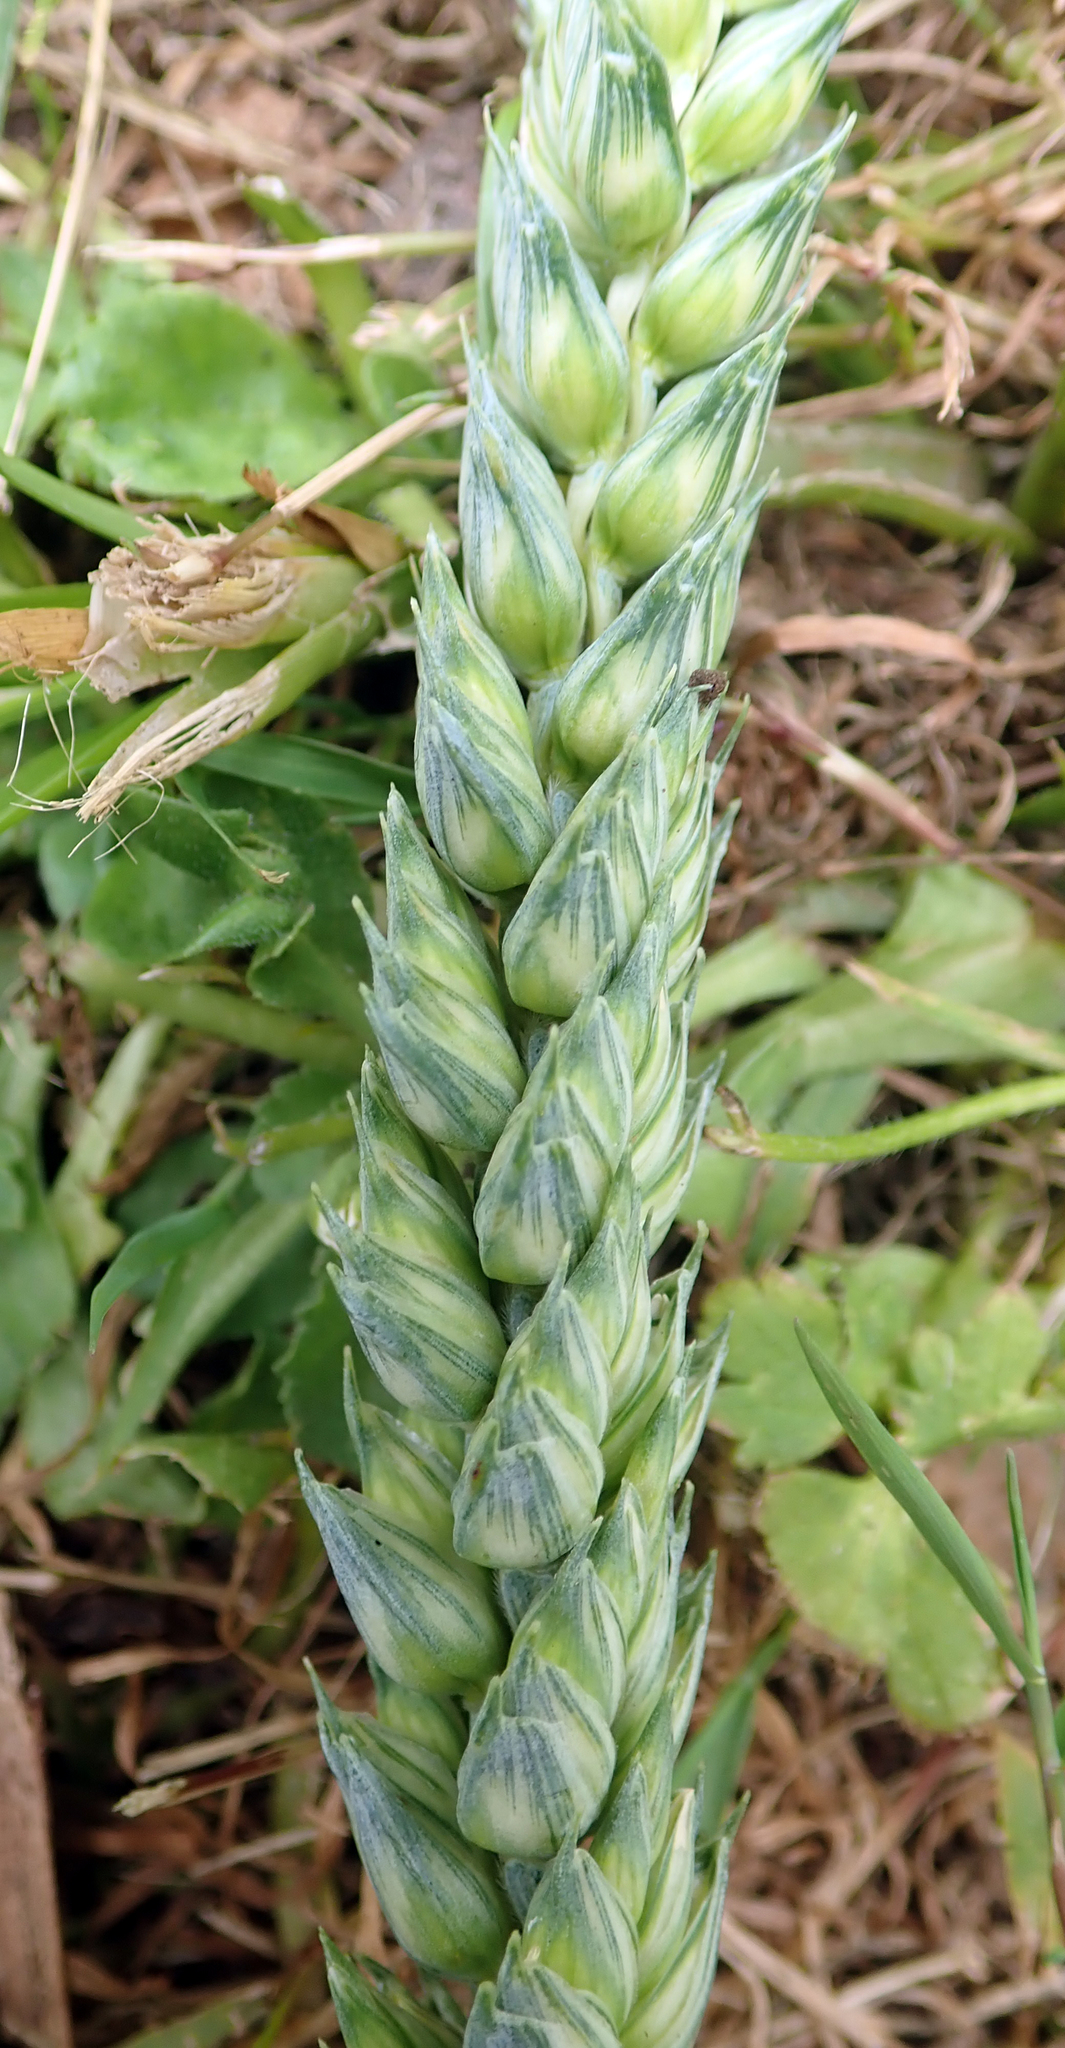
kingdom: Plantae
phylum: Tracheophyta
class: Liliopsida
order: Poales
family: Poaceae
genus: Triticum
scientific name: Triticum aestivum
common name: Common wheat
